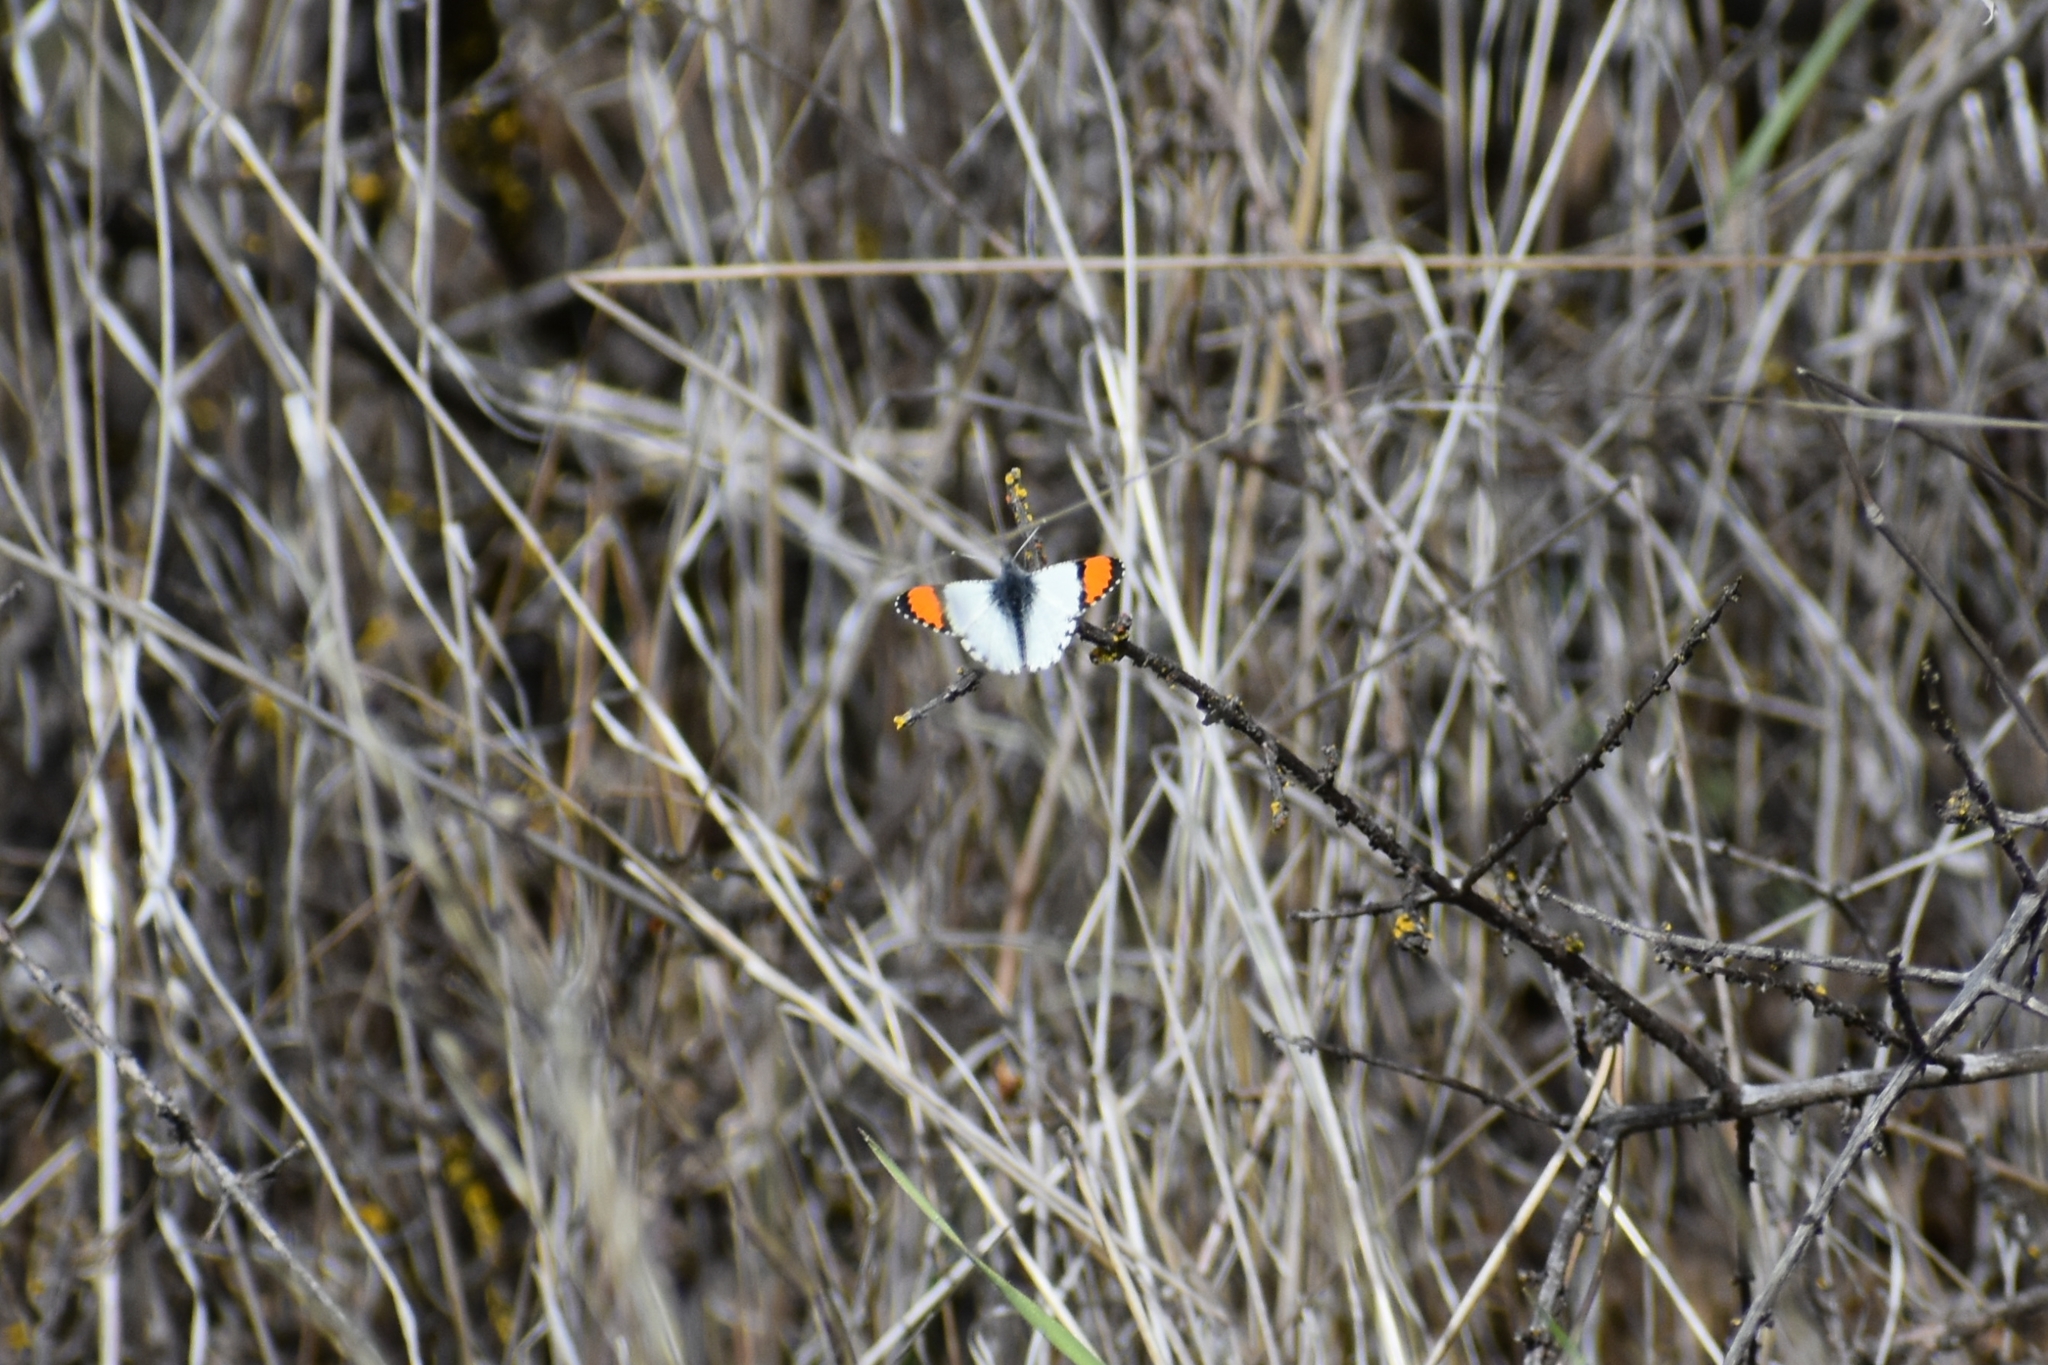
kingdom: Animalia
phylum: Arthropoda
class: Insecta
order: Lepidoptera
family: Pieridae
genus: Anthocharis
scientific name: Anthocharis sara
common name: Sara's orangetip
